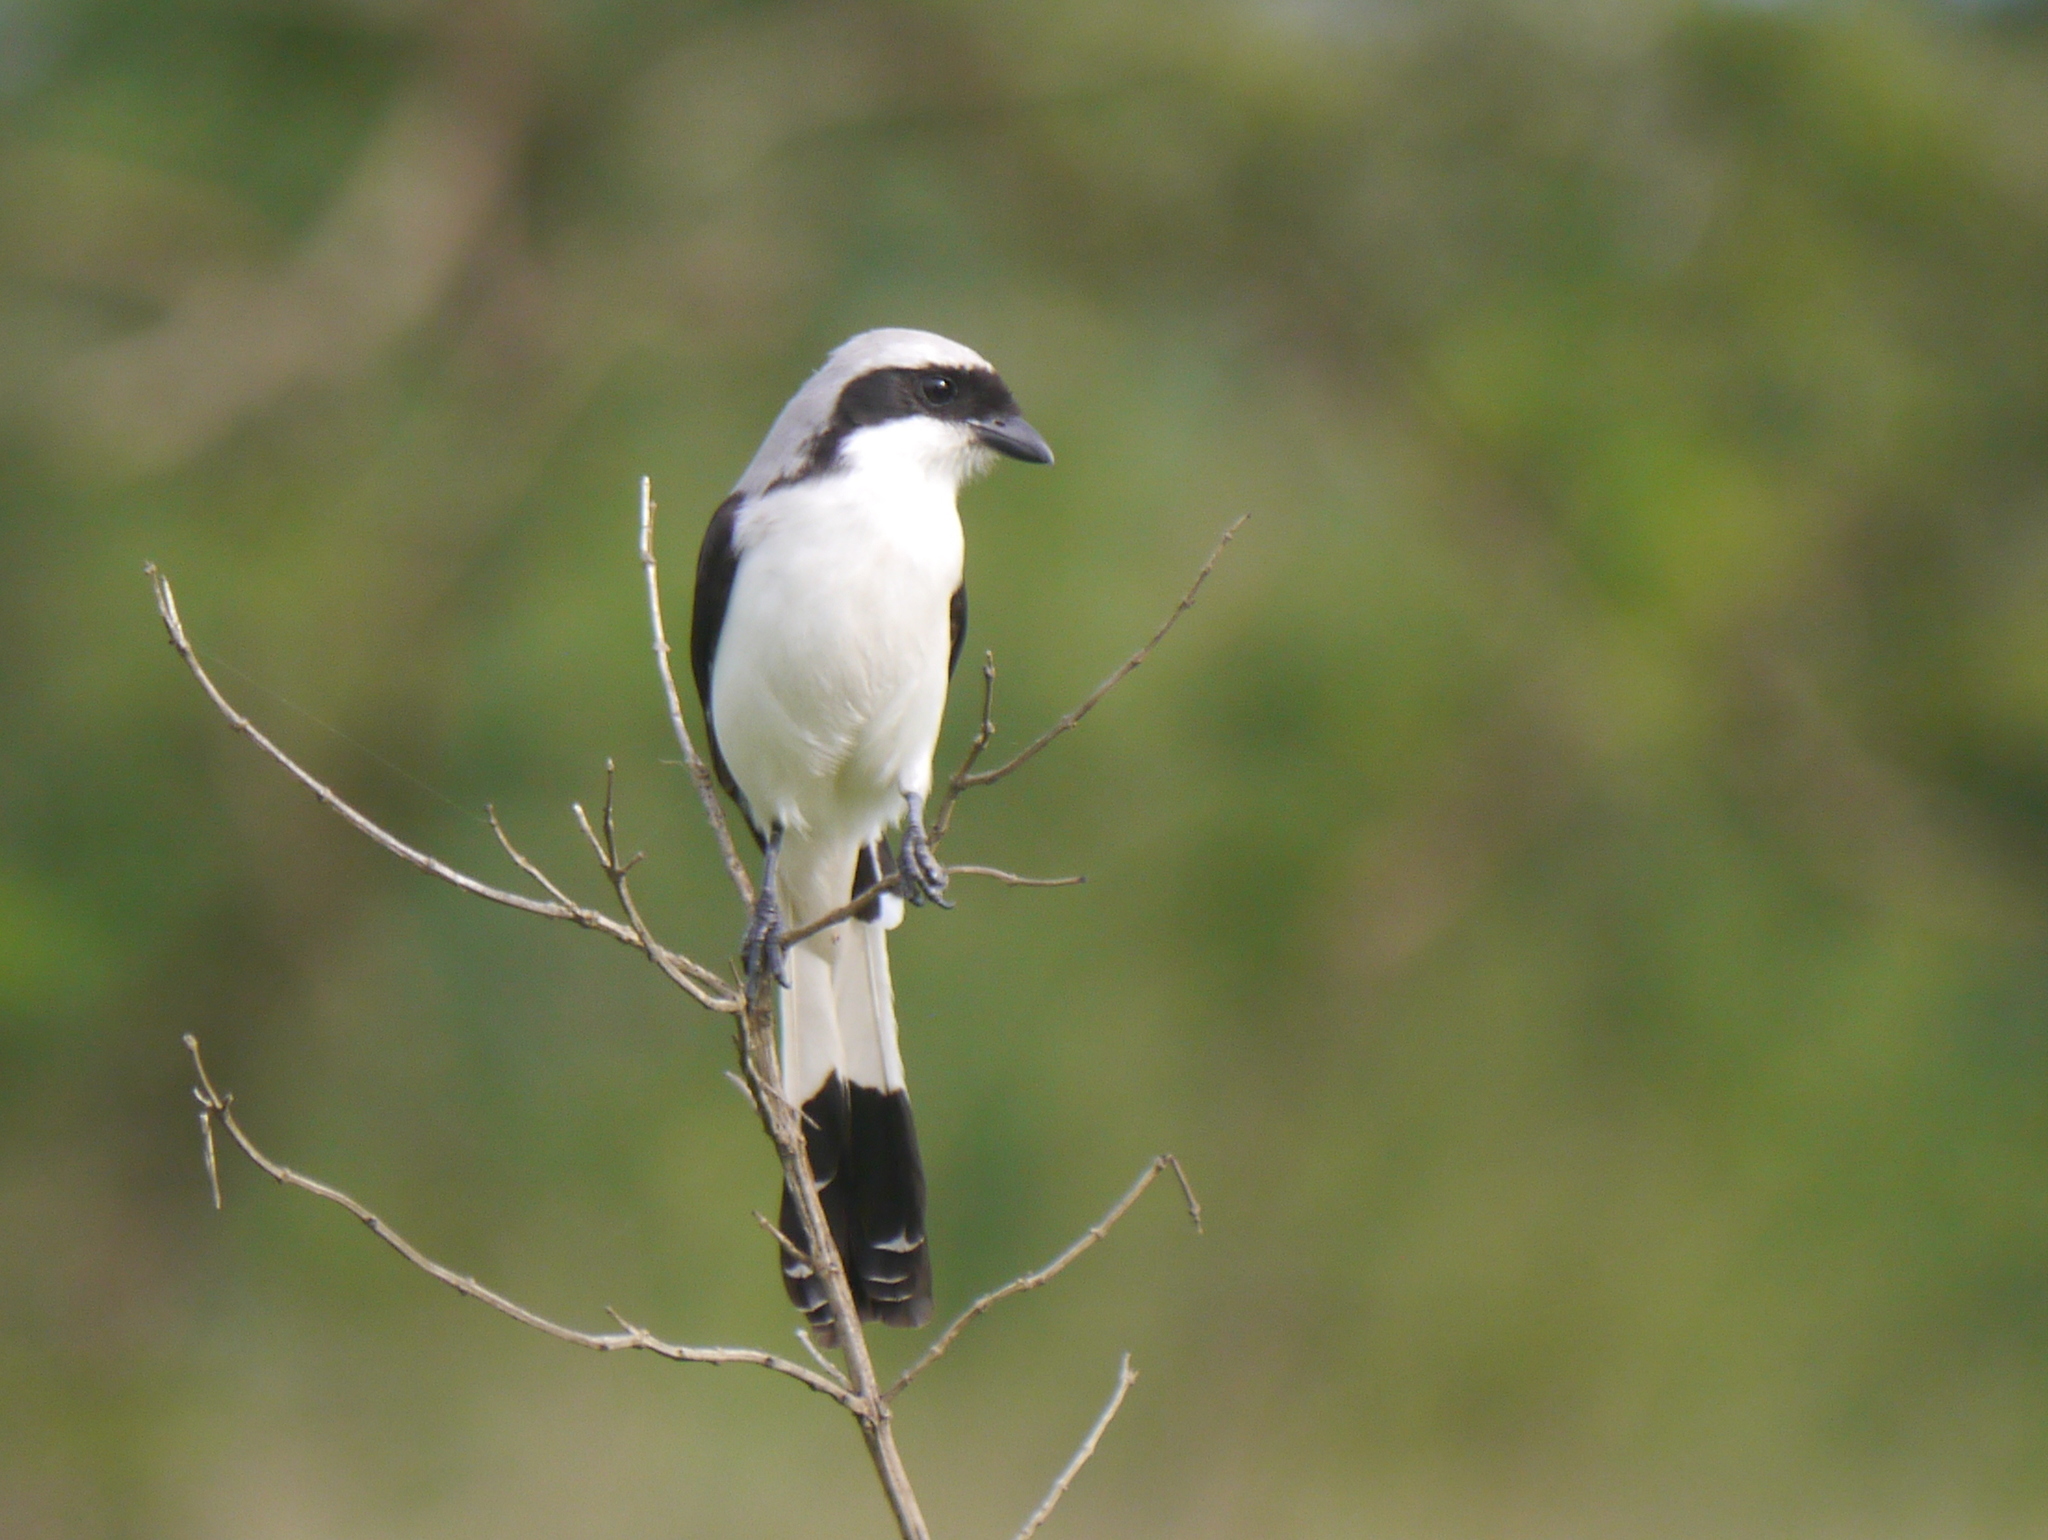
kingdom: Animalia
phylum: Chordata
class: Aves
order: Passeriformes
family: Laniidae
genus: Lanius
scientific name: Lanius excubitoroides
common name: Grey-backed fiscal
